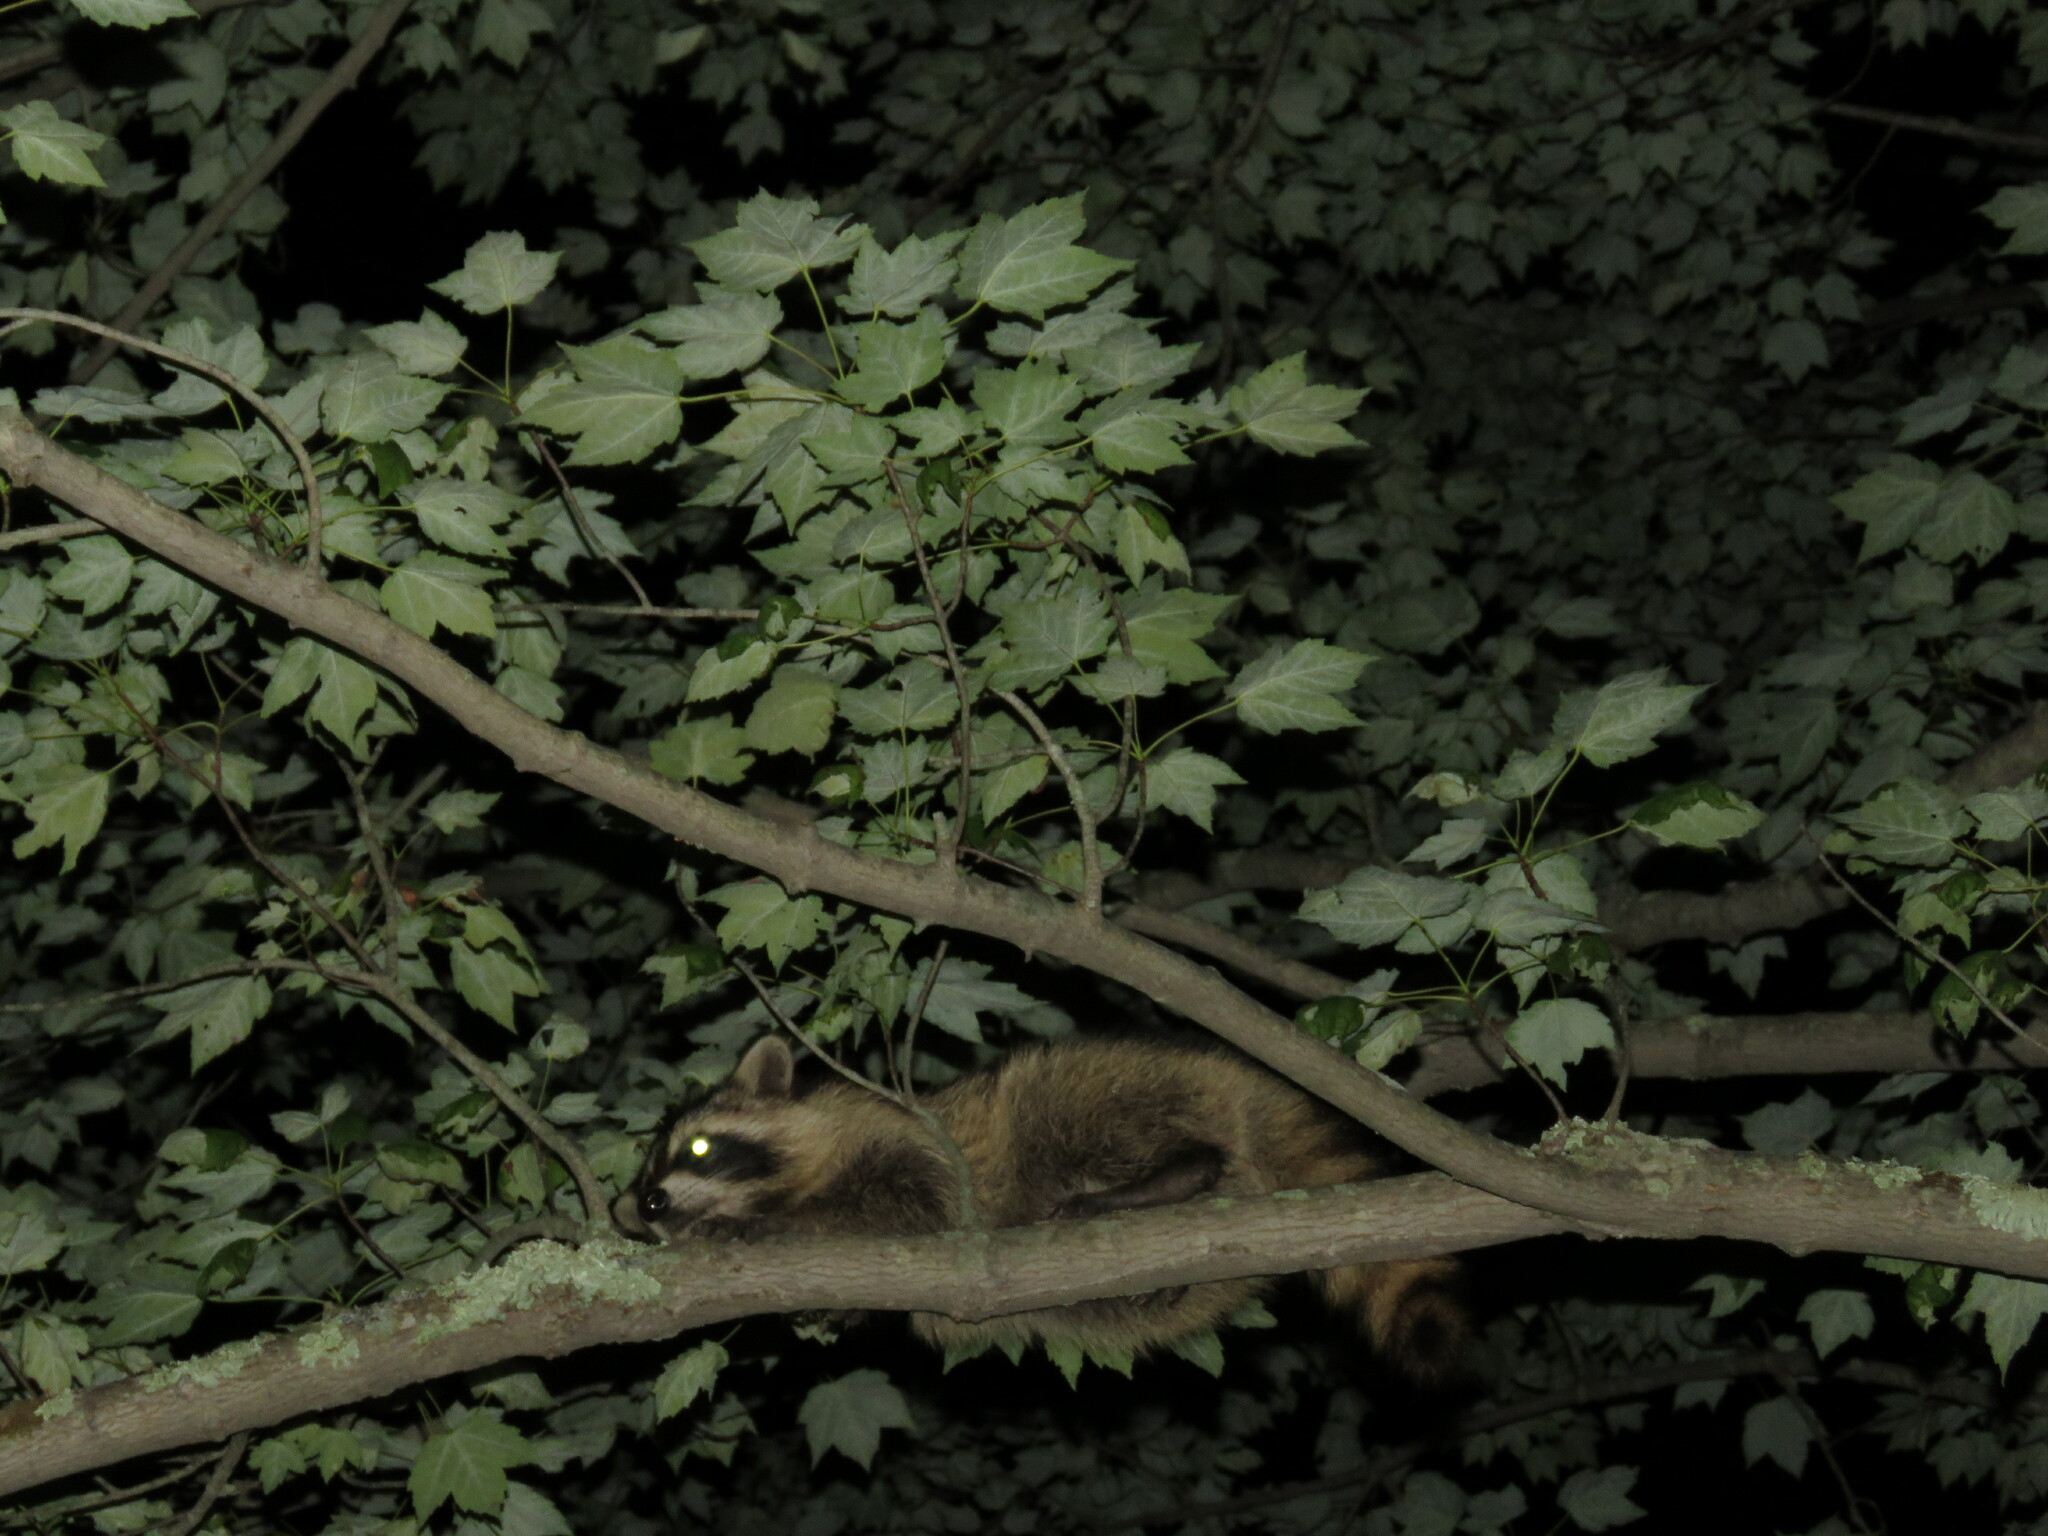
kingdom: Animalia
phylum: Chordata
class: Mammalia
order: Carnivora
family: Procyonidae
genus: Procyon
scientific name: Procyon lotor
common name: Raccoon
